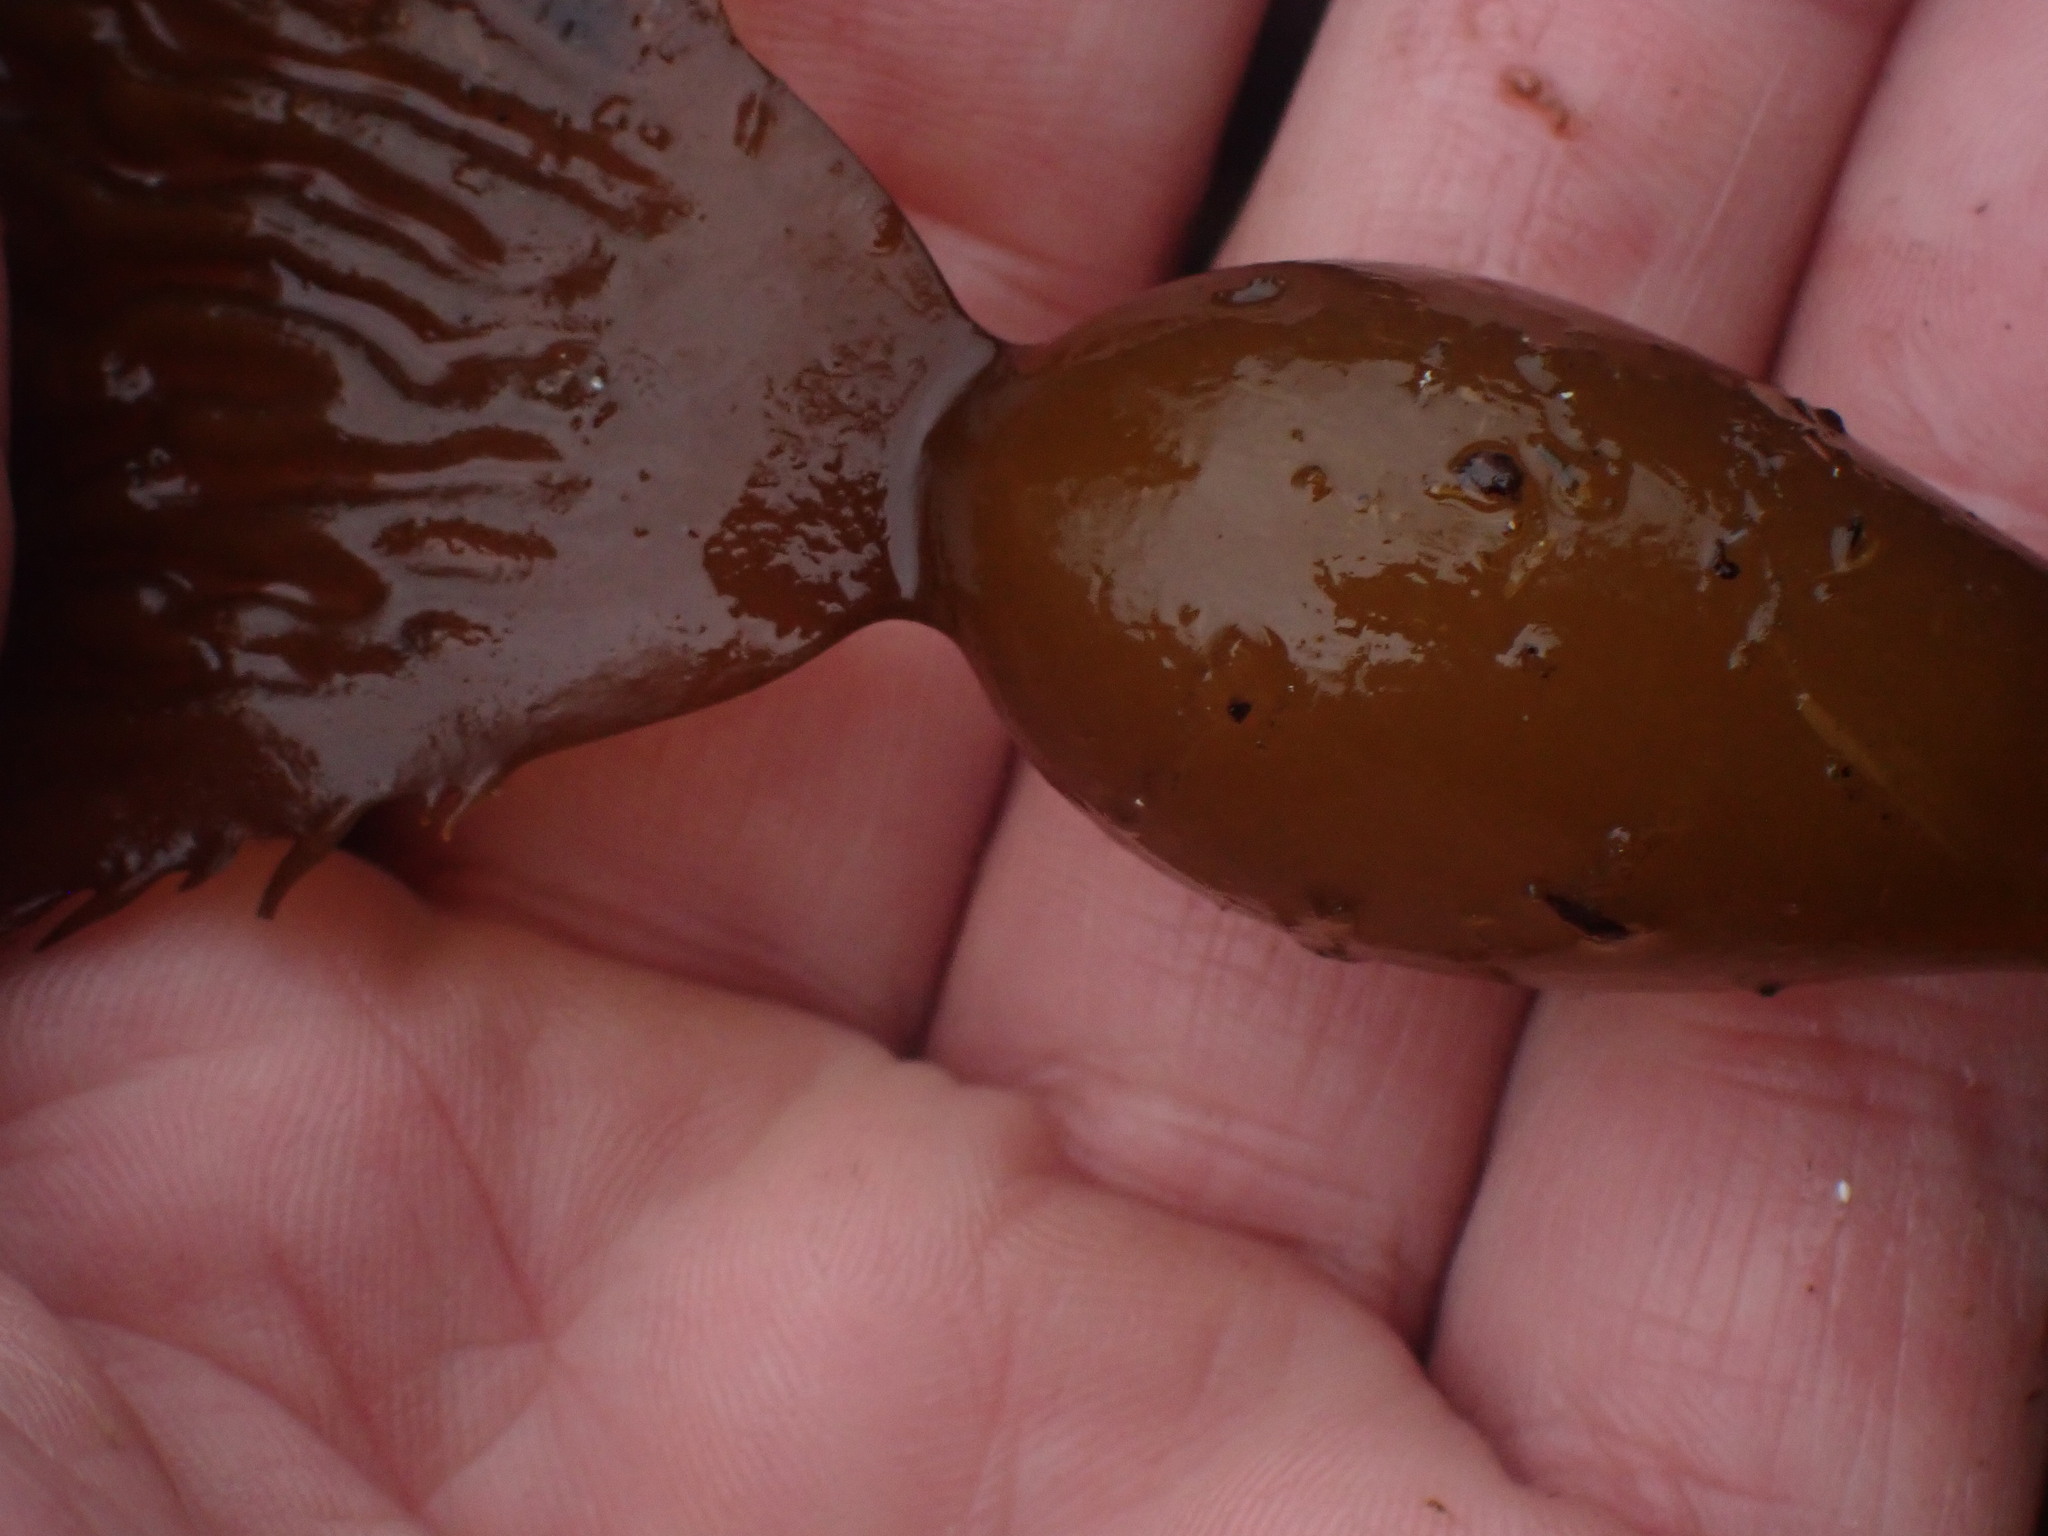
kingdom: Chromista
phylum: Ochrophyta
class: Phaeophyceae
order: Laminariales
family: Laminariaceae
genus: Macrocystis
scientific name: Macrocystis pyrifera
